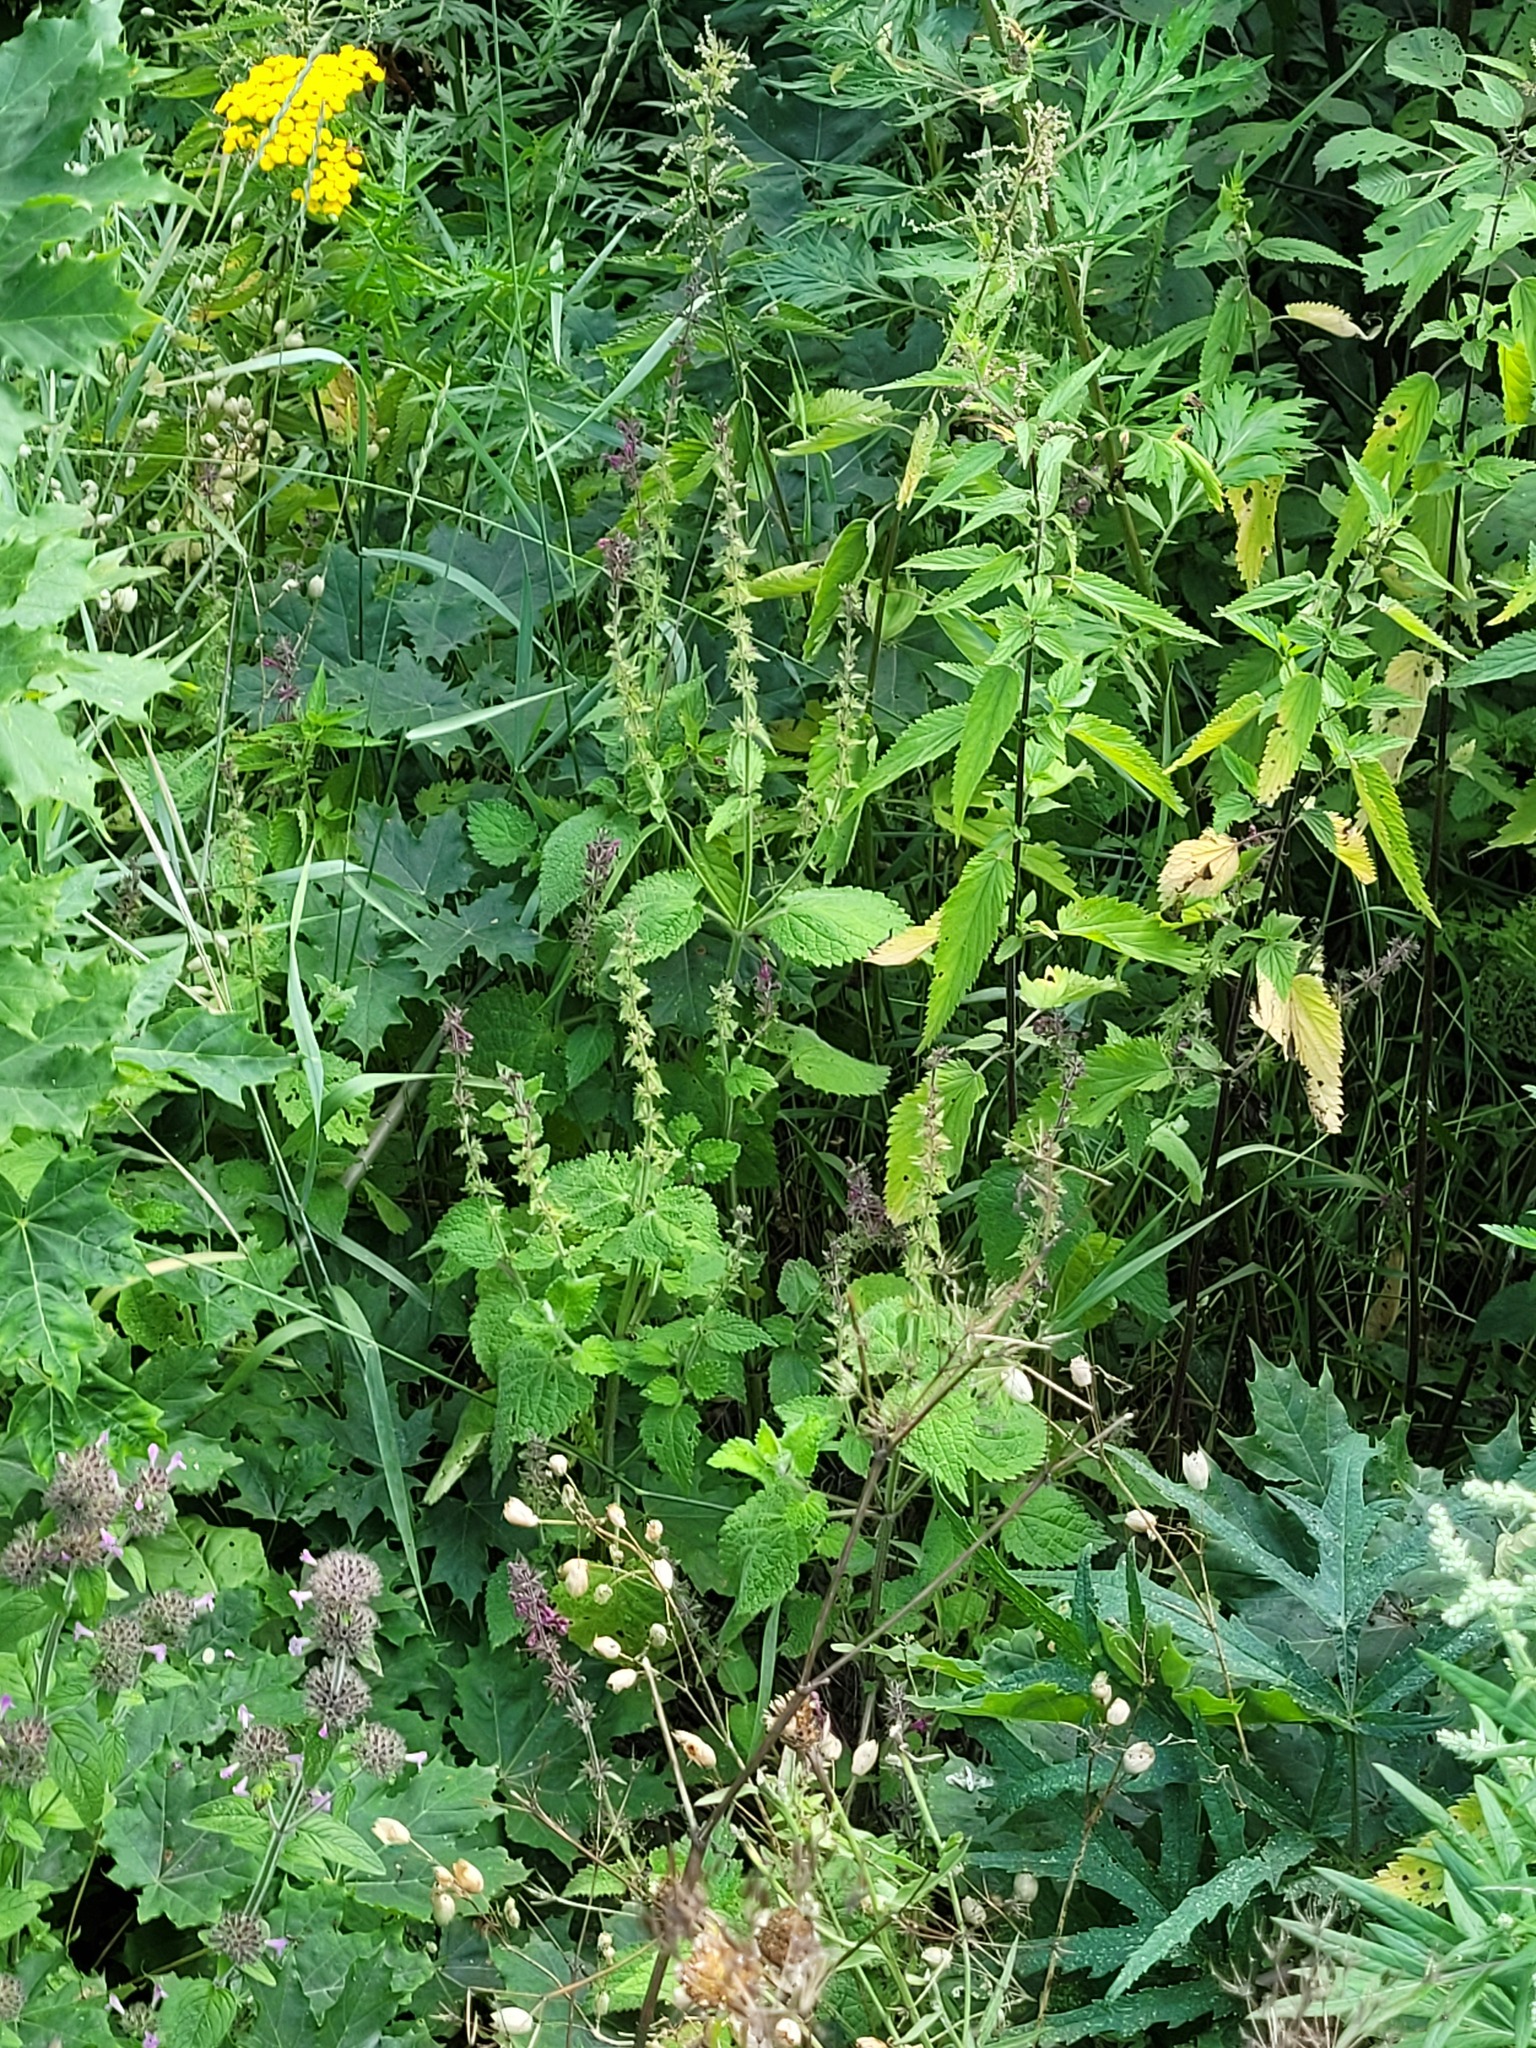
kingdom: Plantae
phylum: Tracheophyta
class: Magnoliopsida
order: Lamiales
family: Lamiaceae
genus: Stachys
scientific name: Stachys sylvatica
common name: Hedge woundwort
